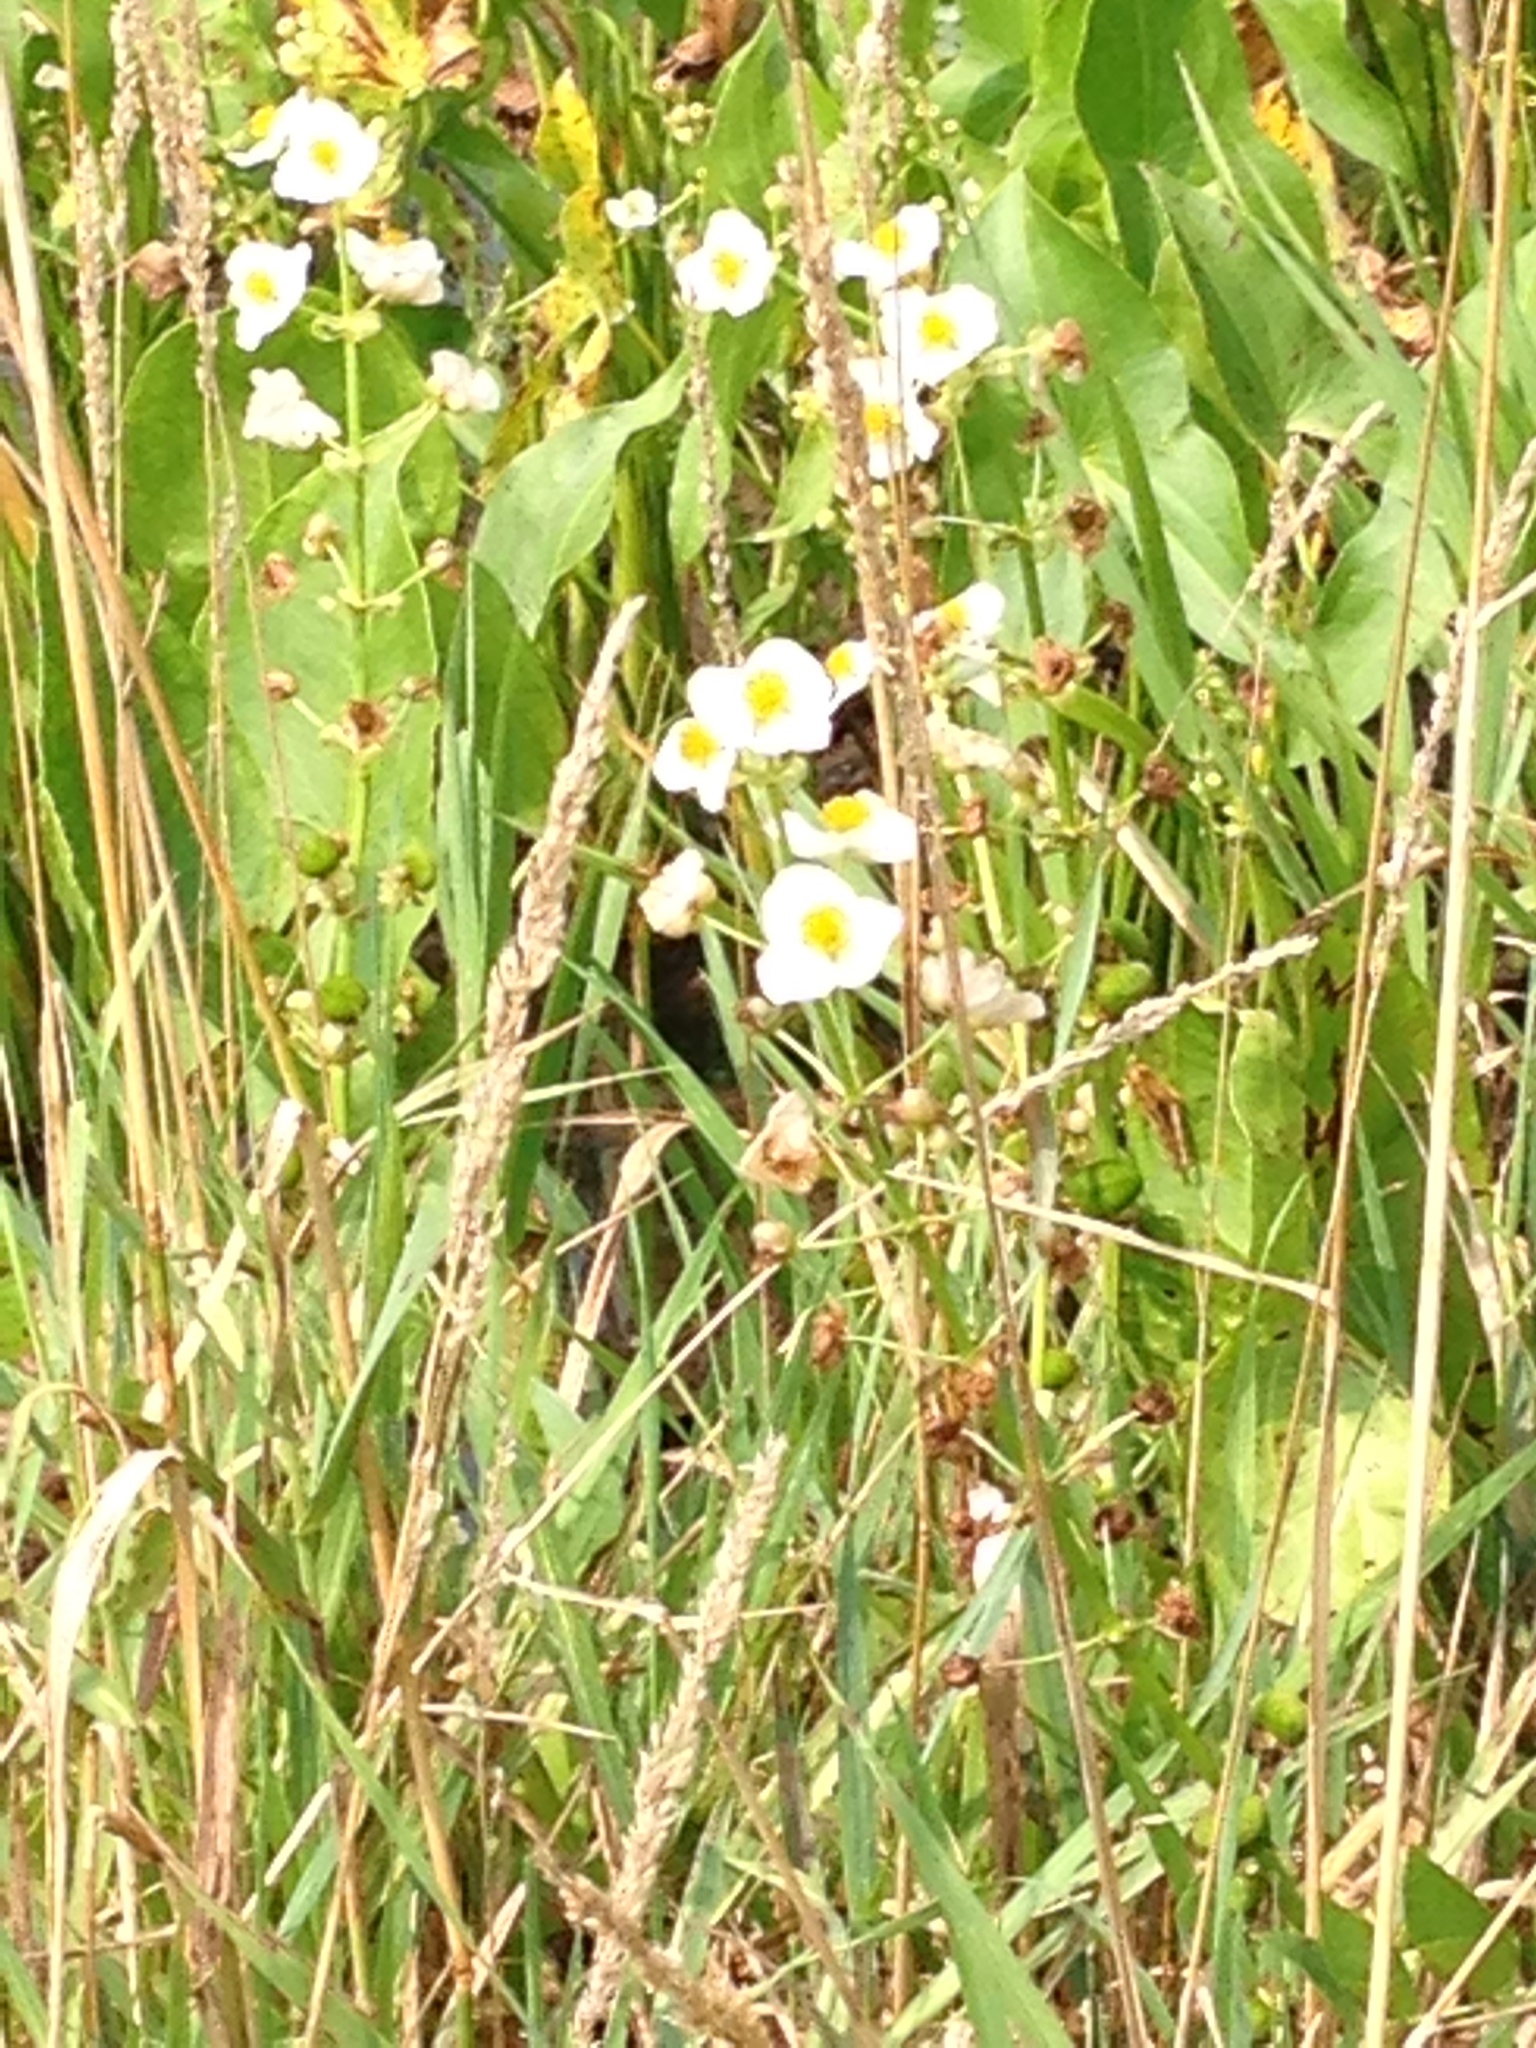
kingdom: Plantae
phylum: Tracheophyta
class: Liliopsida
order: Alismatales
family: Alismataceae
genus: Sagittaria
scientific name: Sagittaria brevirostra
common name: Midwestern arrowhead
